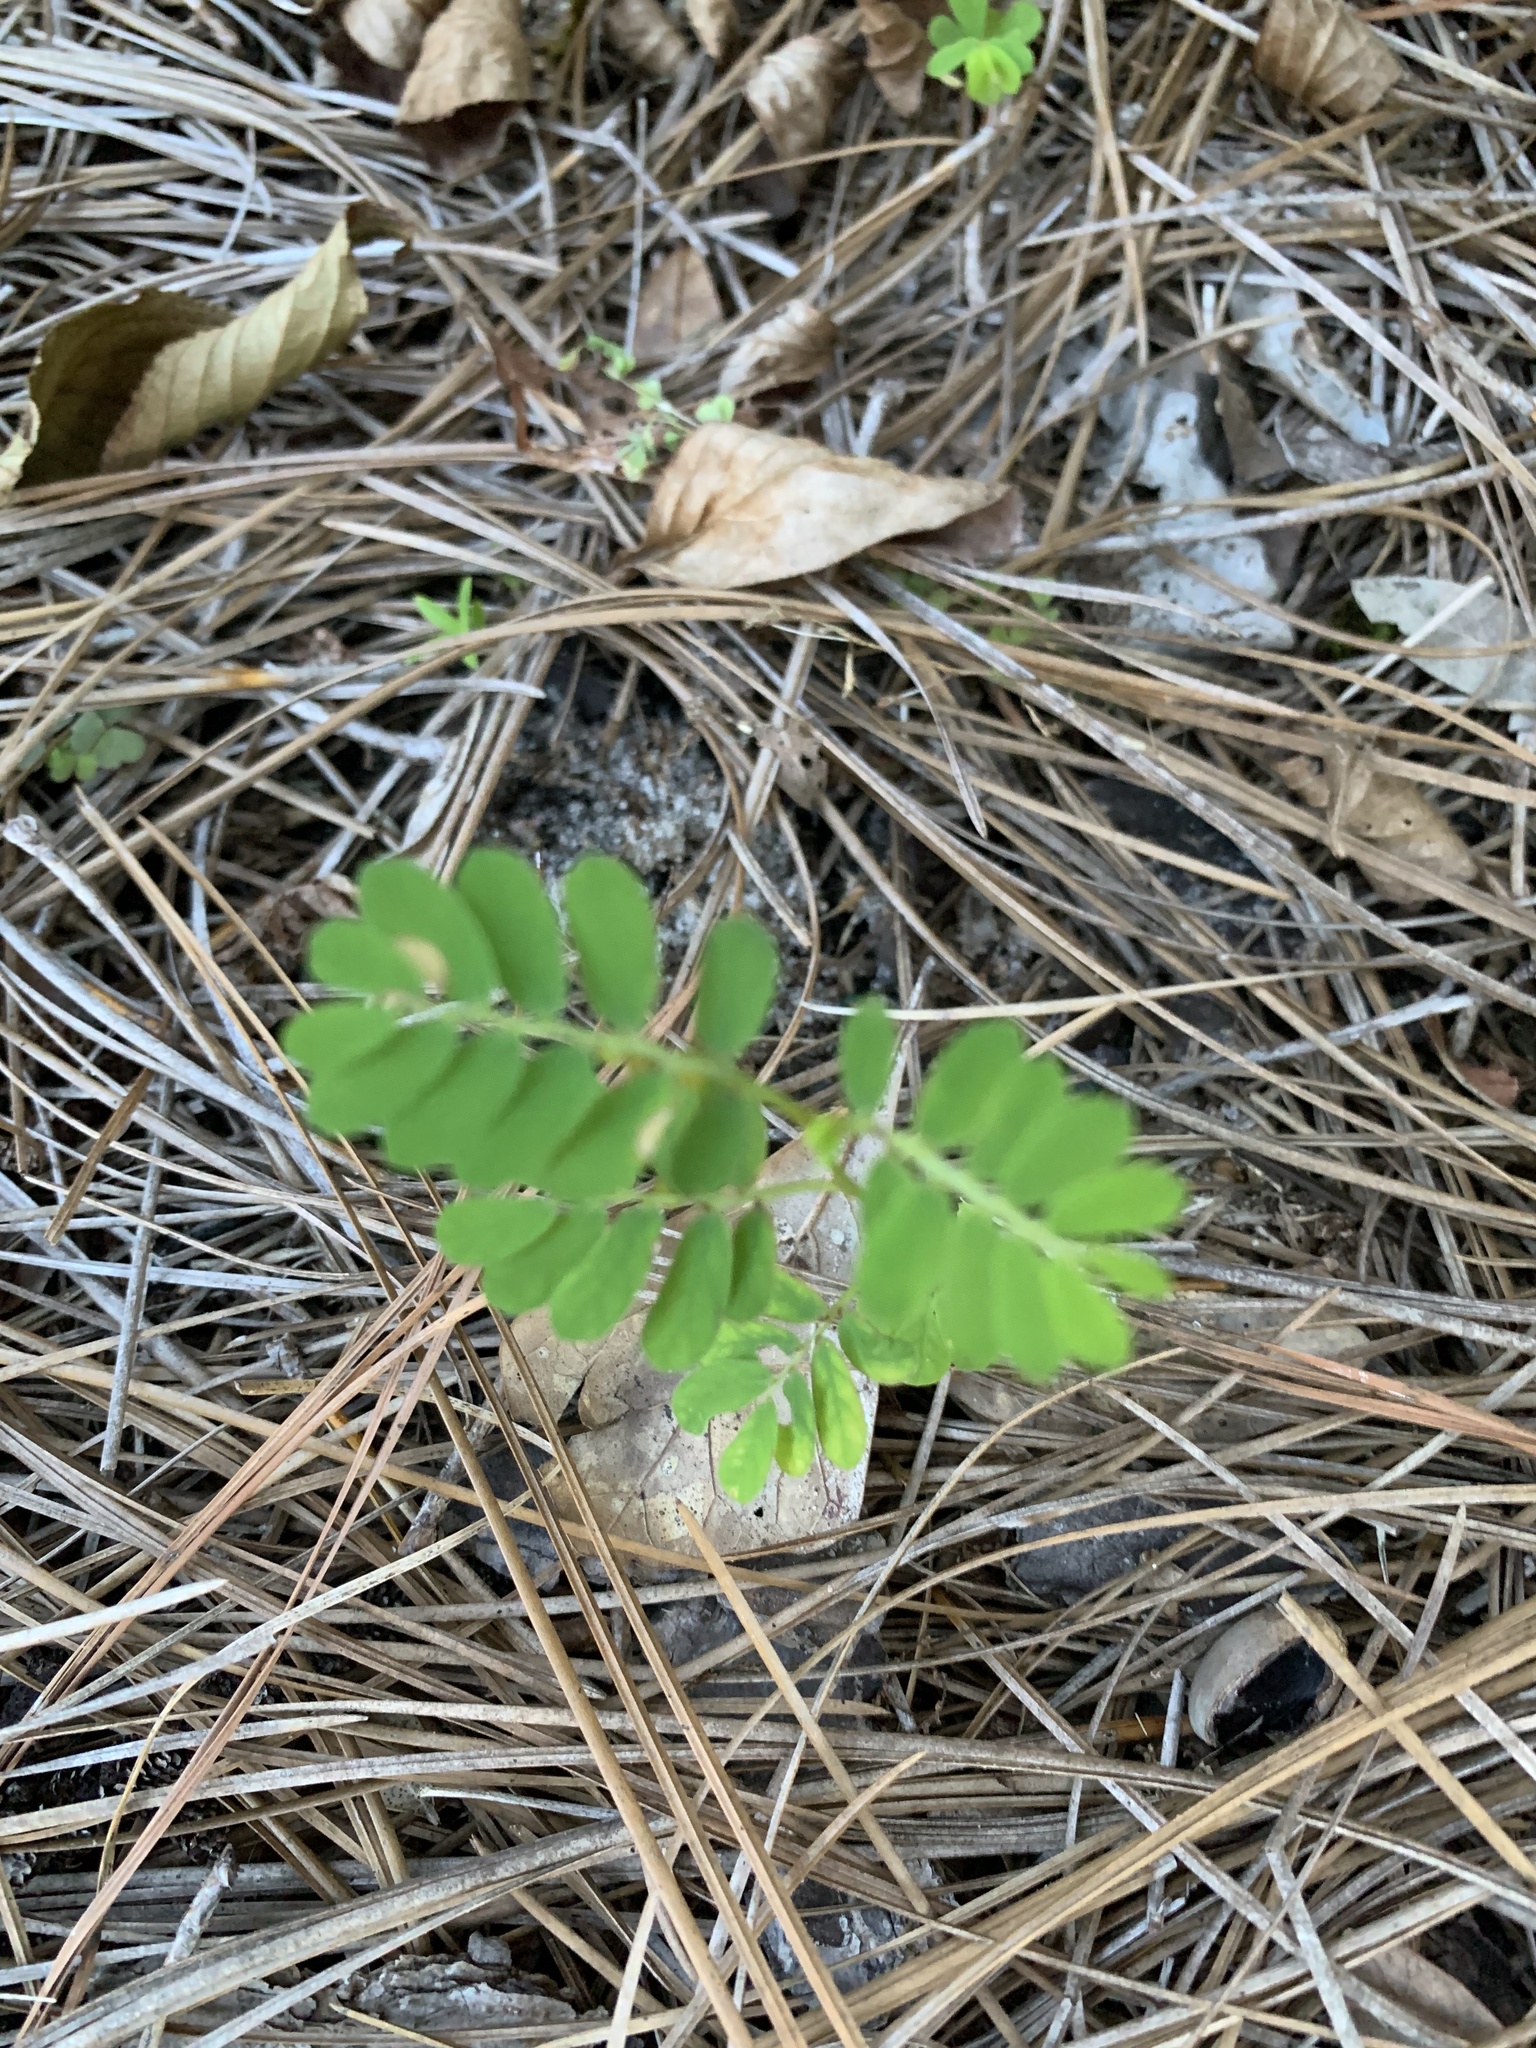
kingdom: Plantae
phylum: Tracheophyta
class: Magnoliopsida
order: Malpighiales
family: Phyllanthaceae
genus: Phyllanthus
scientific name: Phyllanthus urinaria
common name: Chamber bitter
